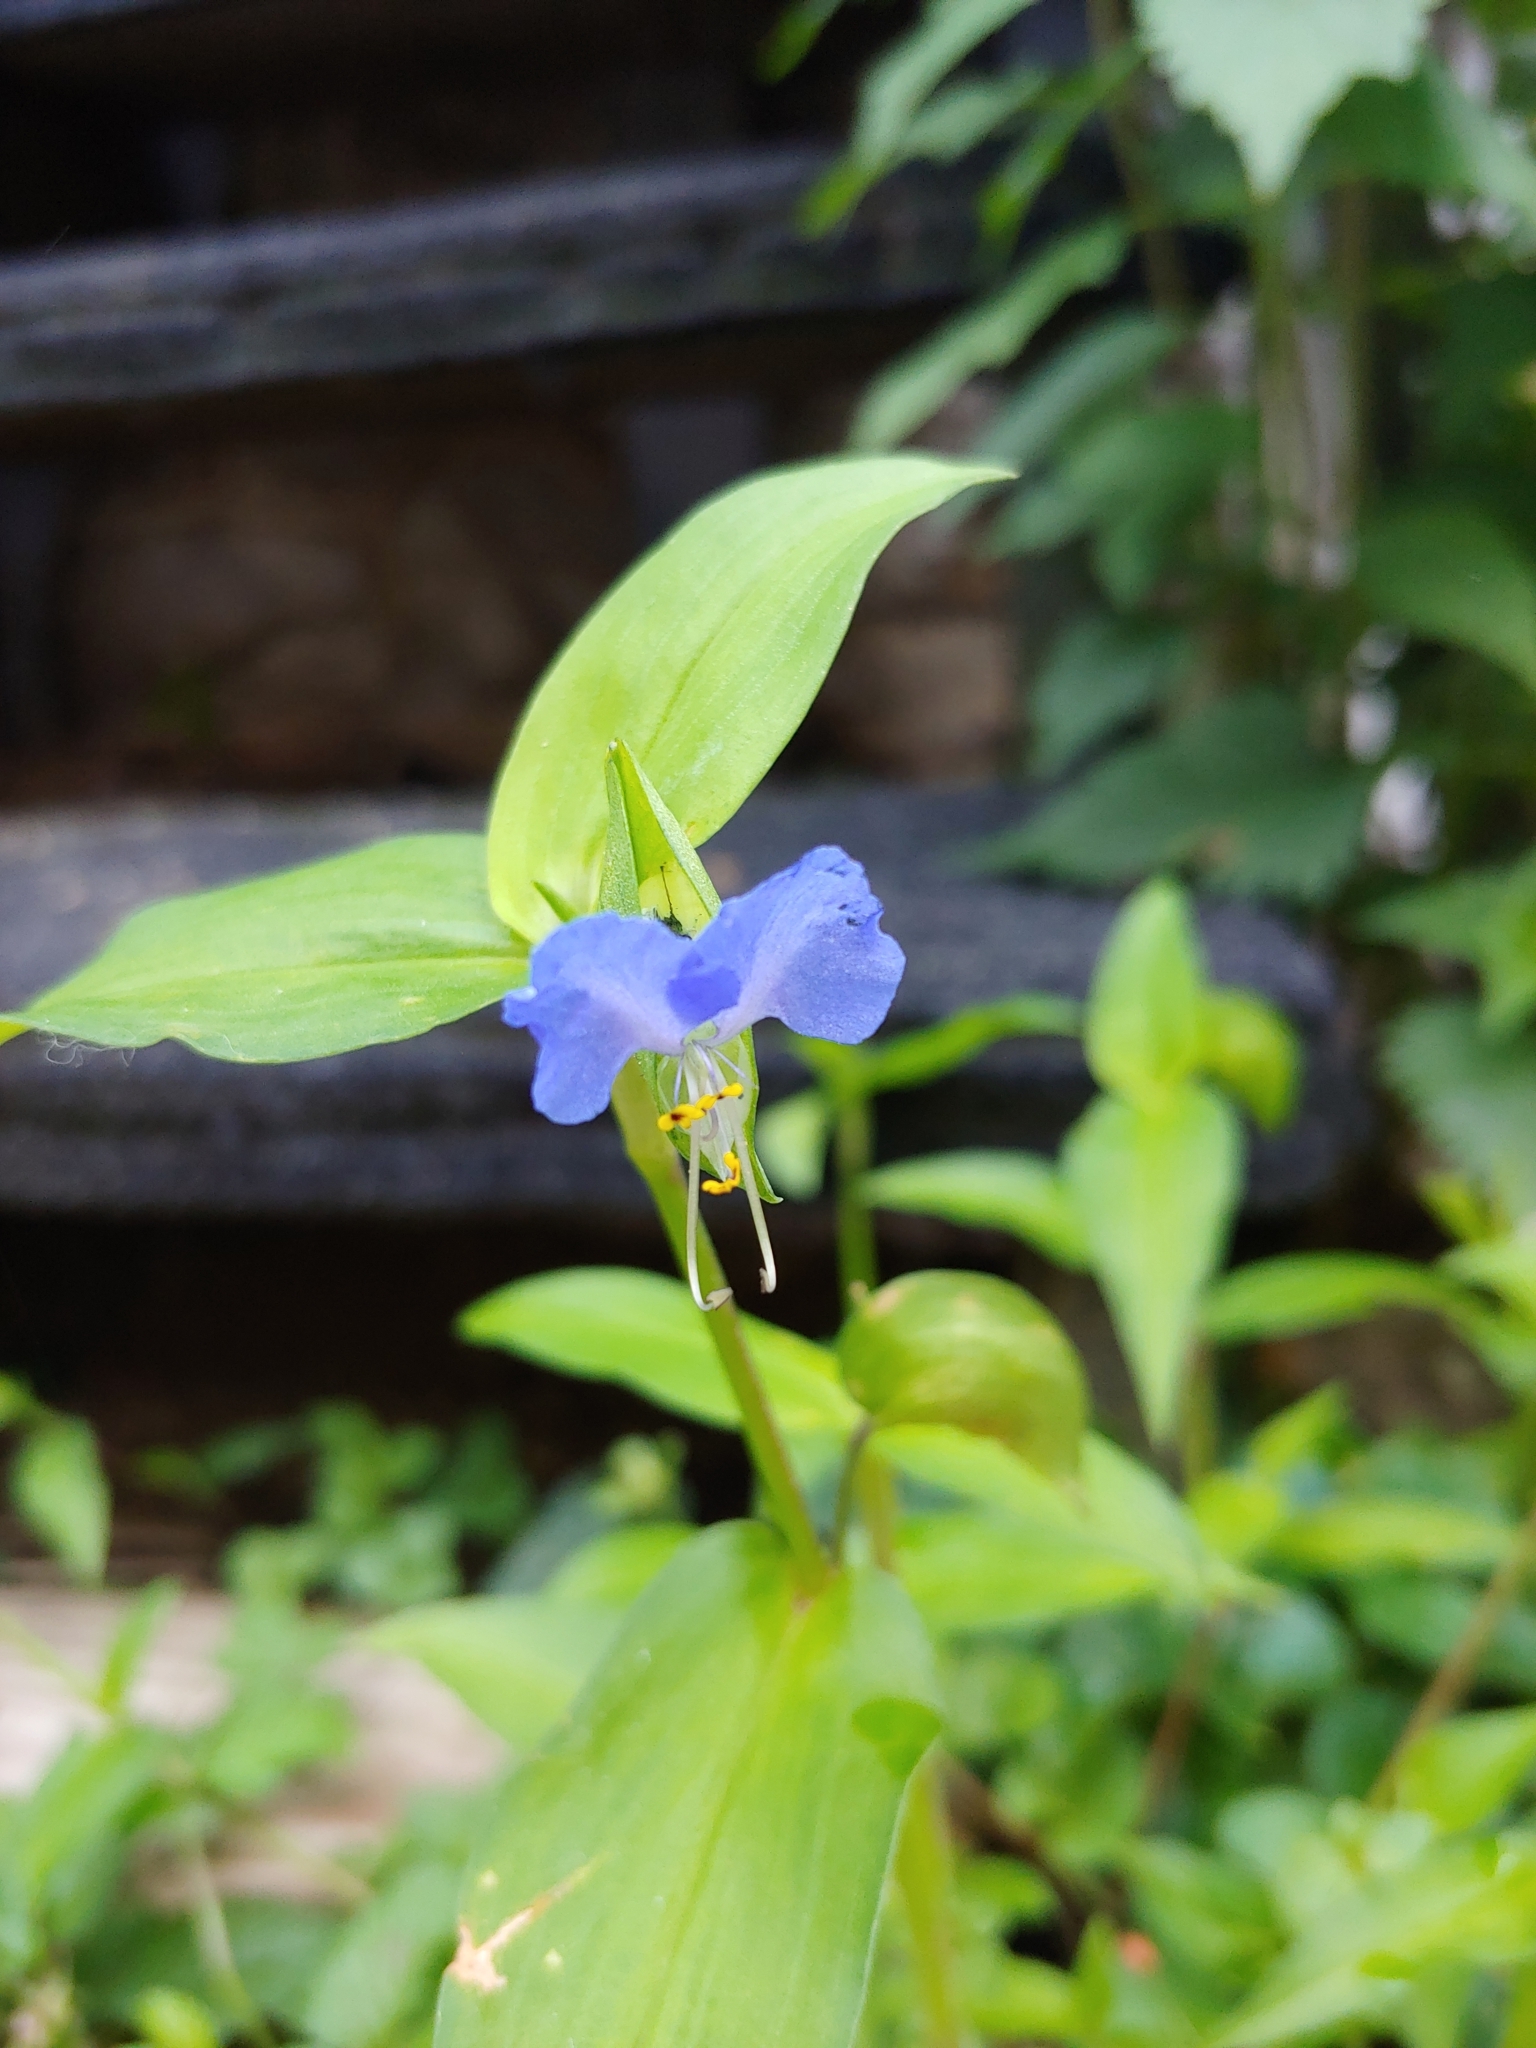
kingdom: Plantae
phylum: Tracheophyta
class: Liliopsida
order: Commelinales
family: Commelinaceae
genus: Commelina
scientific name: Commelina communis
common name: Asiatic dayflower
